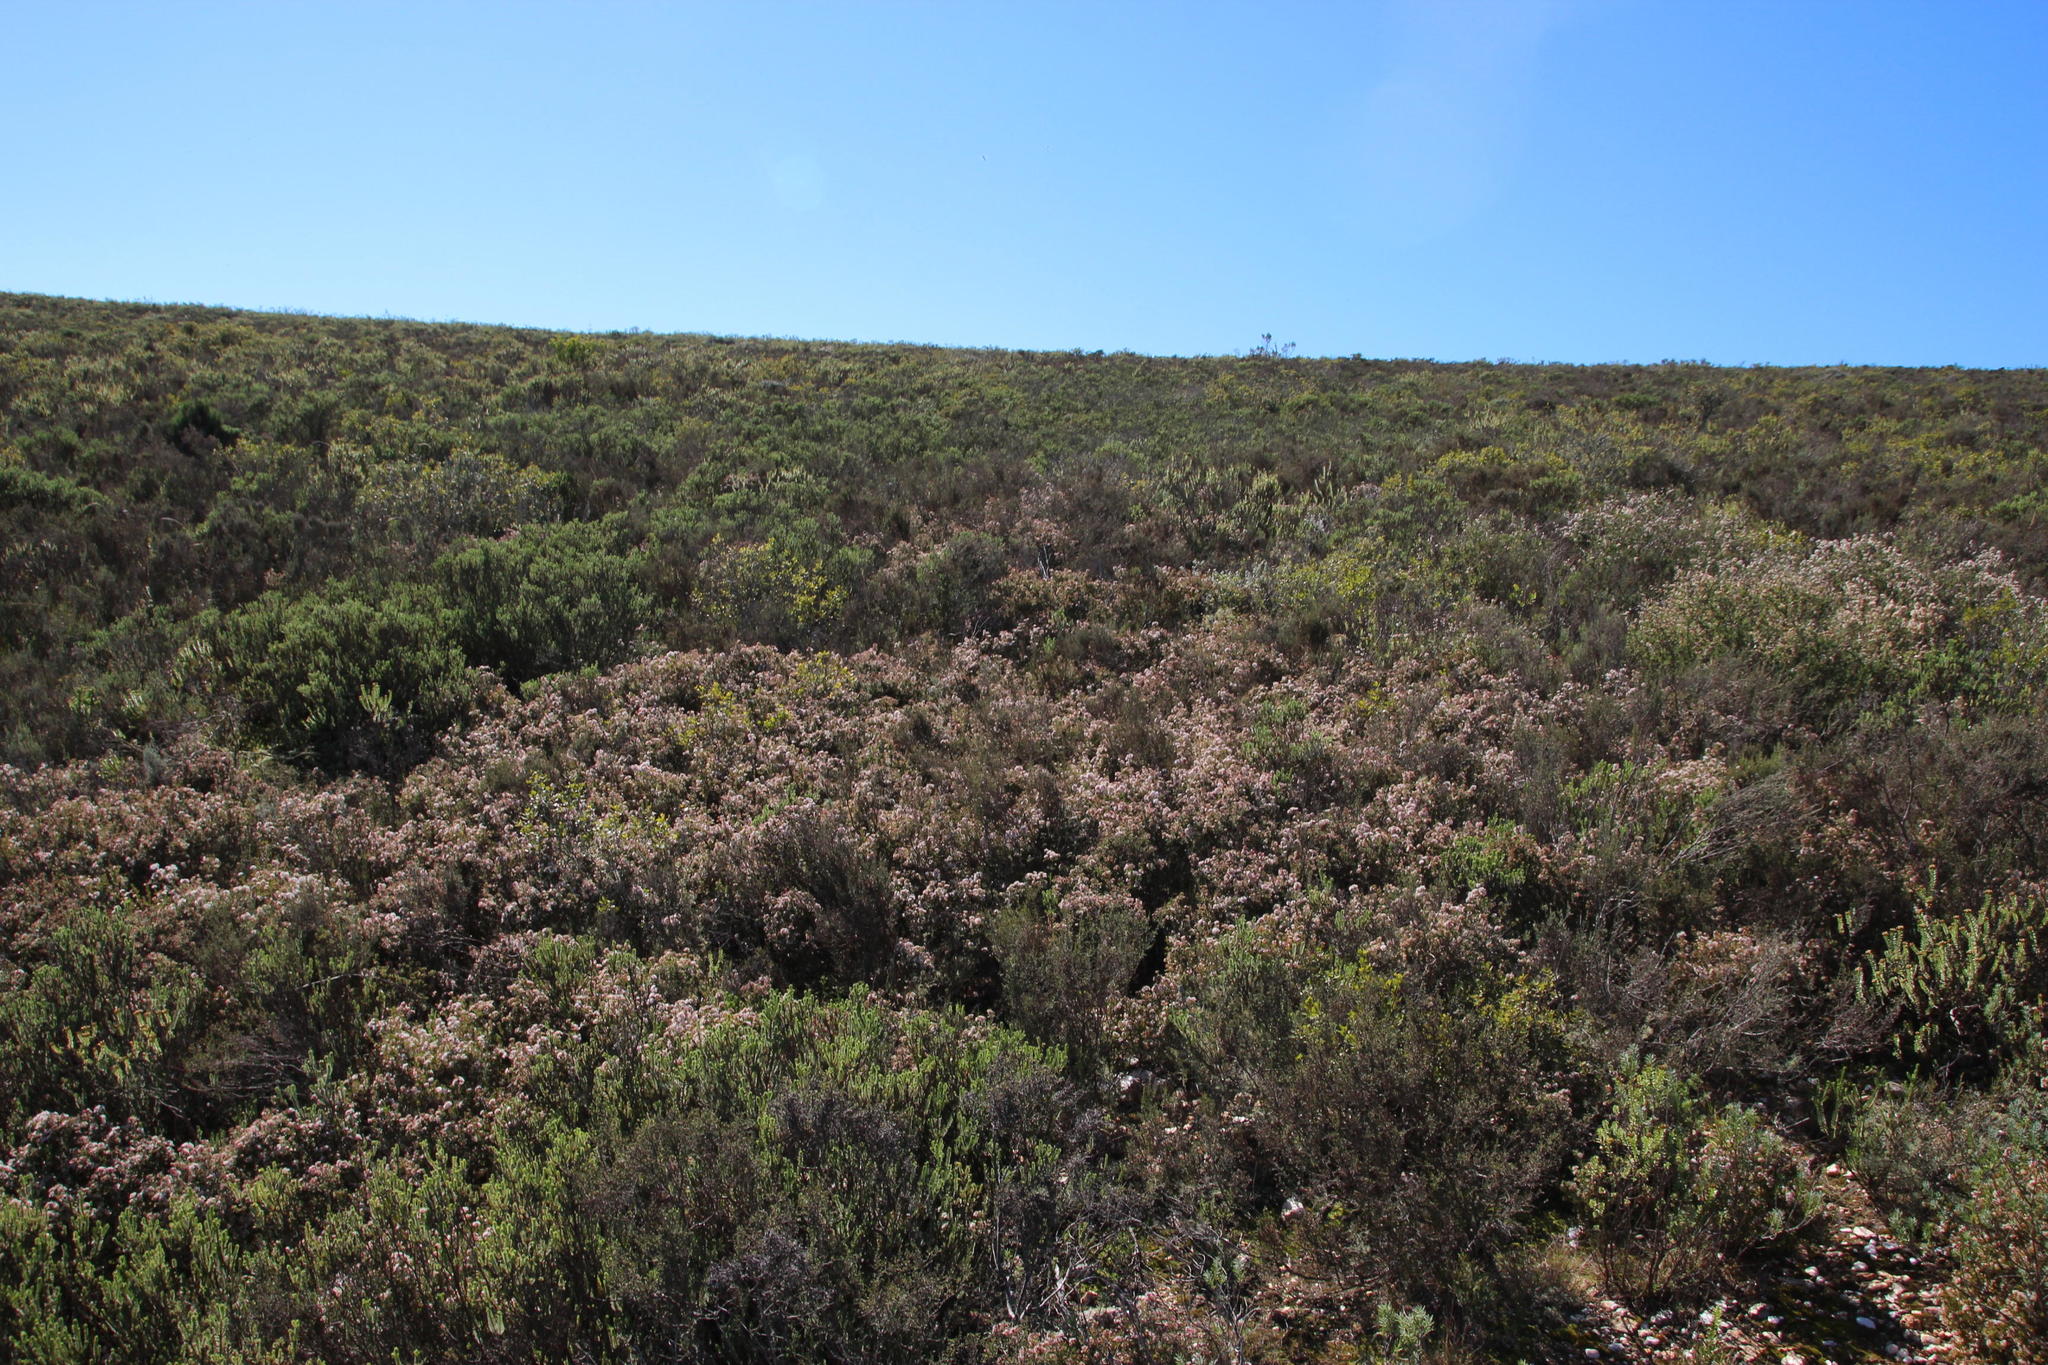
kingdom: Plantae
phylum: Tracheophyta
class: Magnoliopsida
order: Sapindales
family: Rutaceae
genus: Agathosma
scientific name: Agathosma foetidissima
